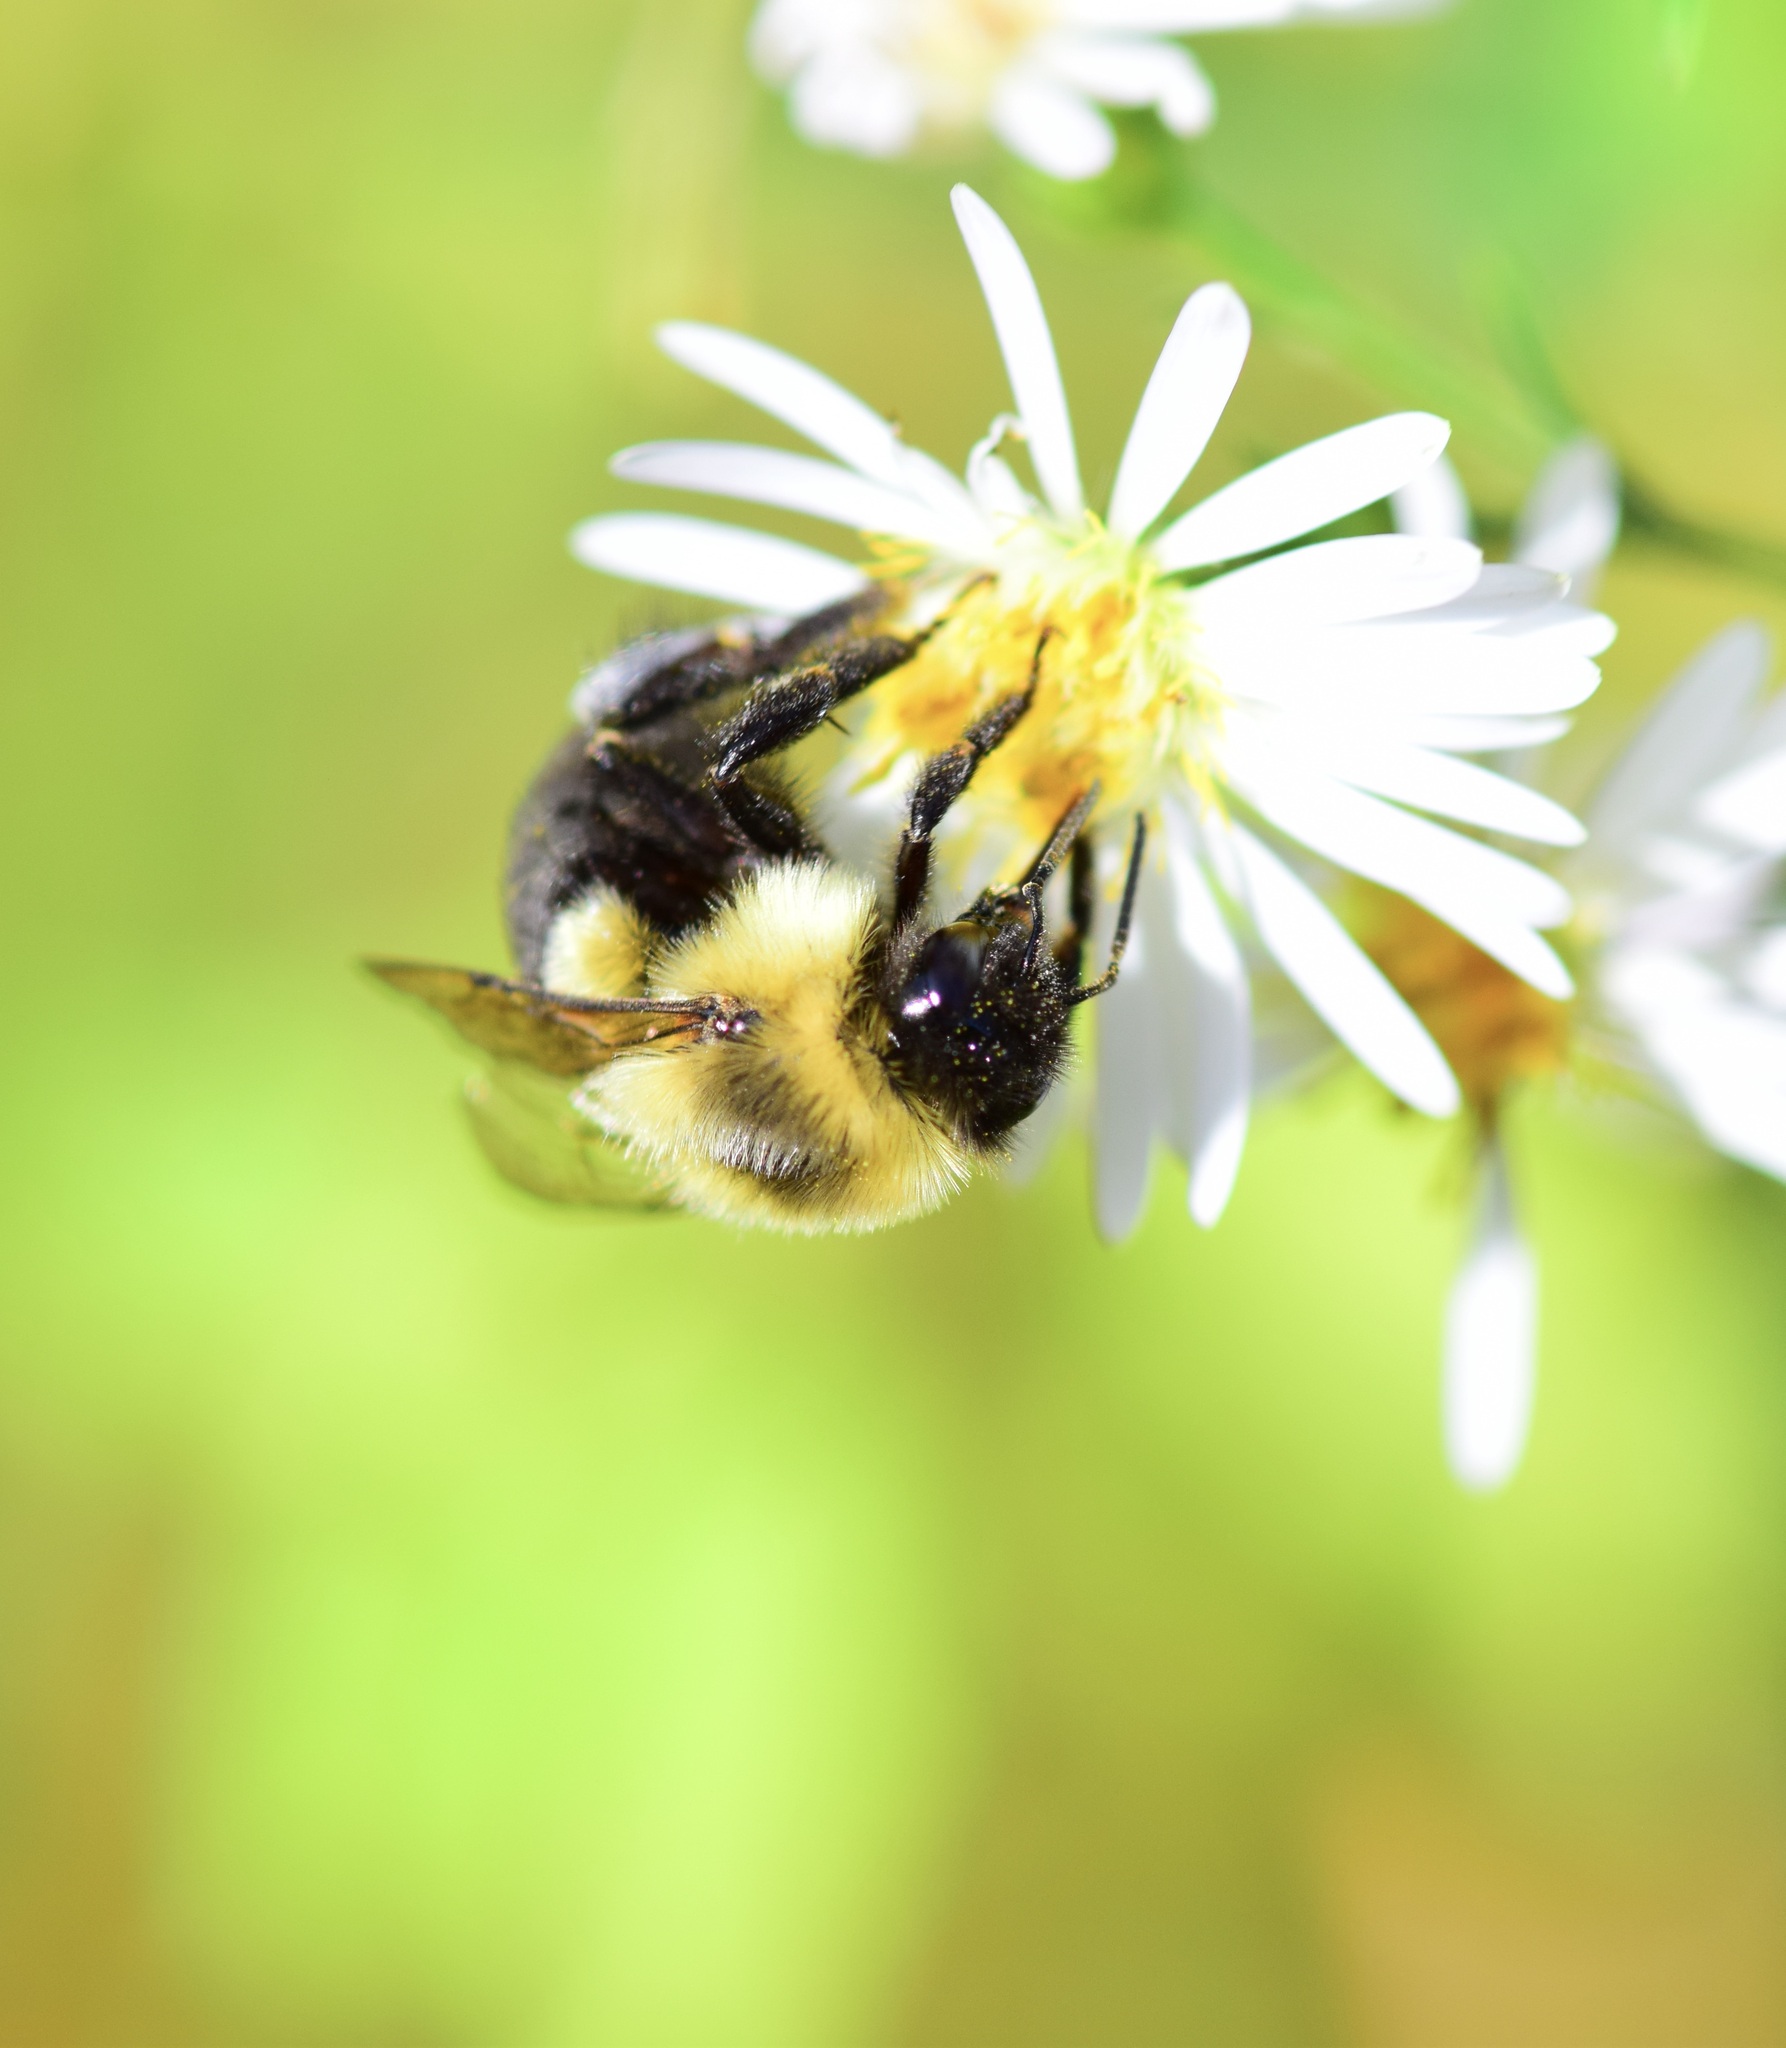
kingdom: Animalia
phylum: Arthropoda
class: Insecta
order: Hymenoptera
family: Apidae
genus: Bombus
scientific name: Bombus impatiens
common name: Common eastern bumble bee
